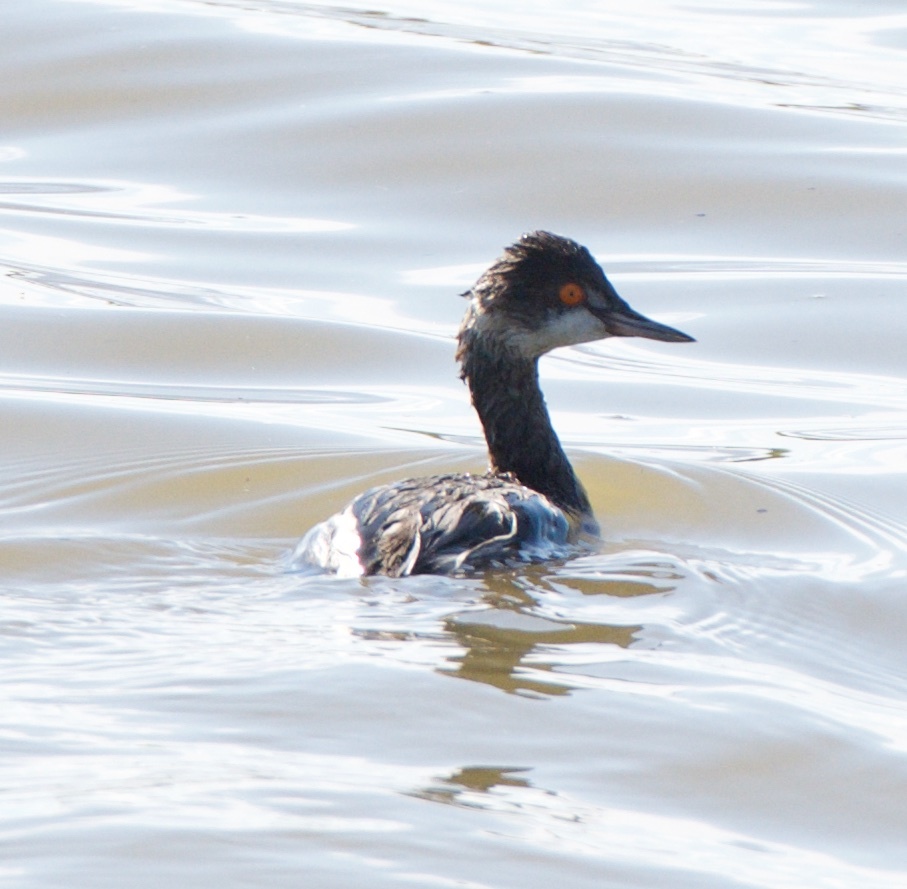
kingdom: Animalia
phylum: Chordata
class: Aves
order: Podicipediformes
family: Podicipedidae
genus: Podiceps
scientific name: Podiceps nigricollis
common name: Black-necked grebe
